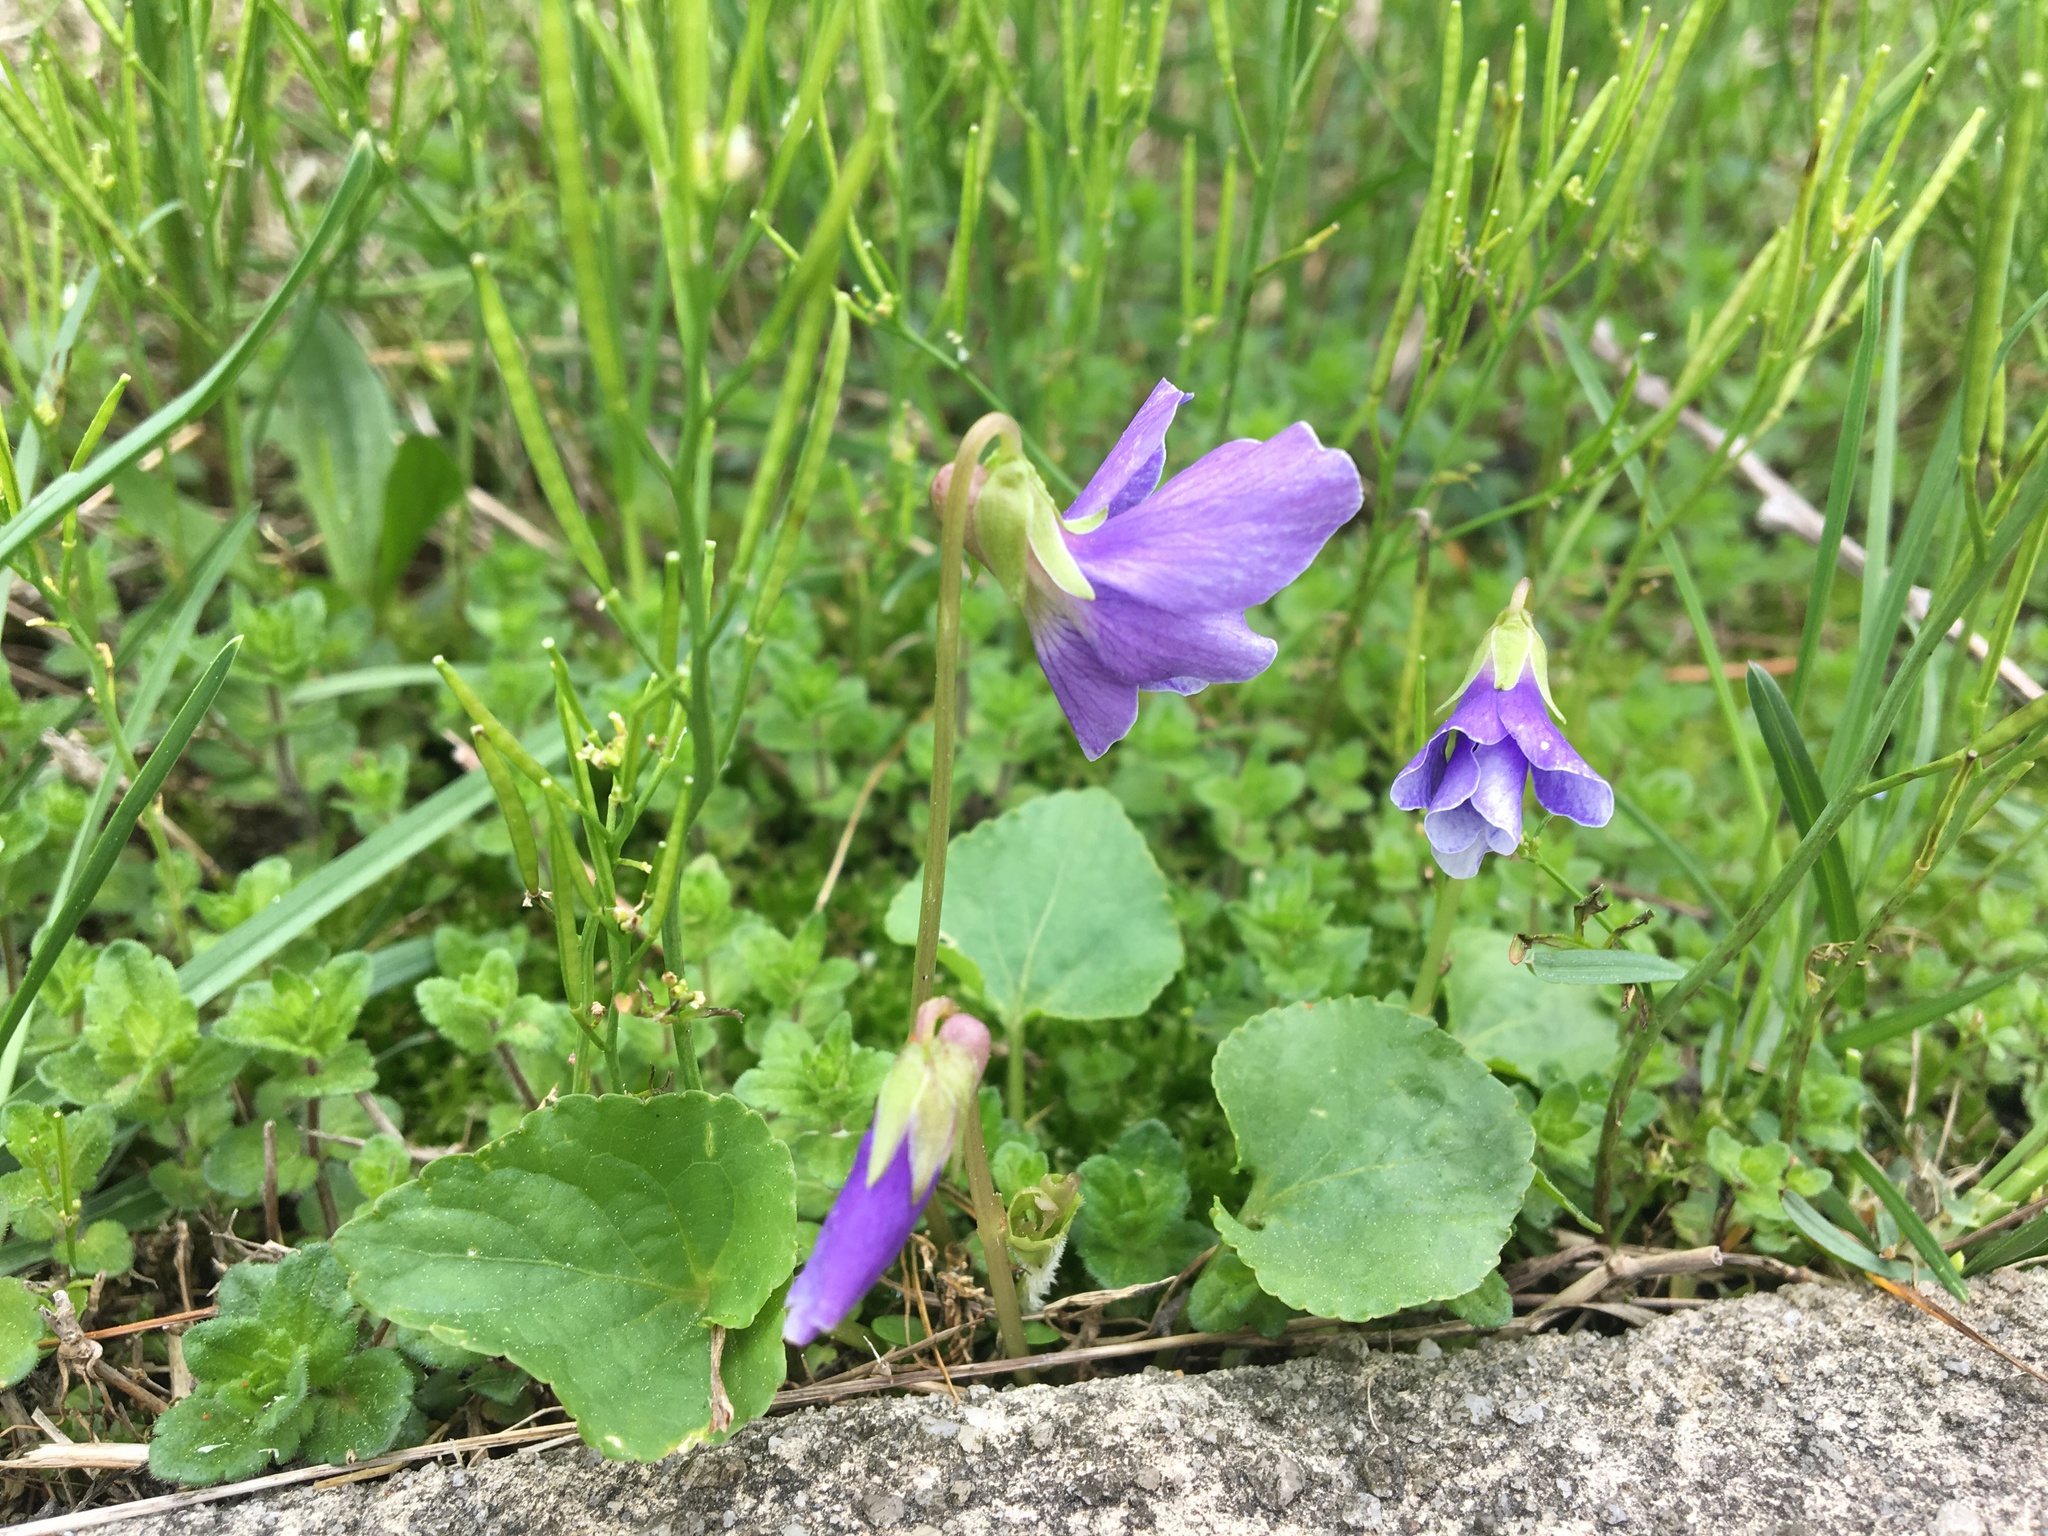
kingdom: Plantae
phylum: Tracheophyta
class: Magnoliopsida
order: Malpighiales
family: Violaceae
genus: Viola
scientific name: Viola sororia
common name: Dooryard violet
